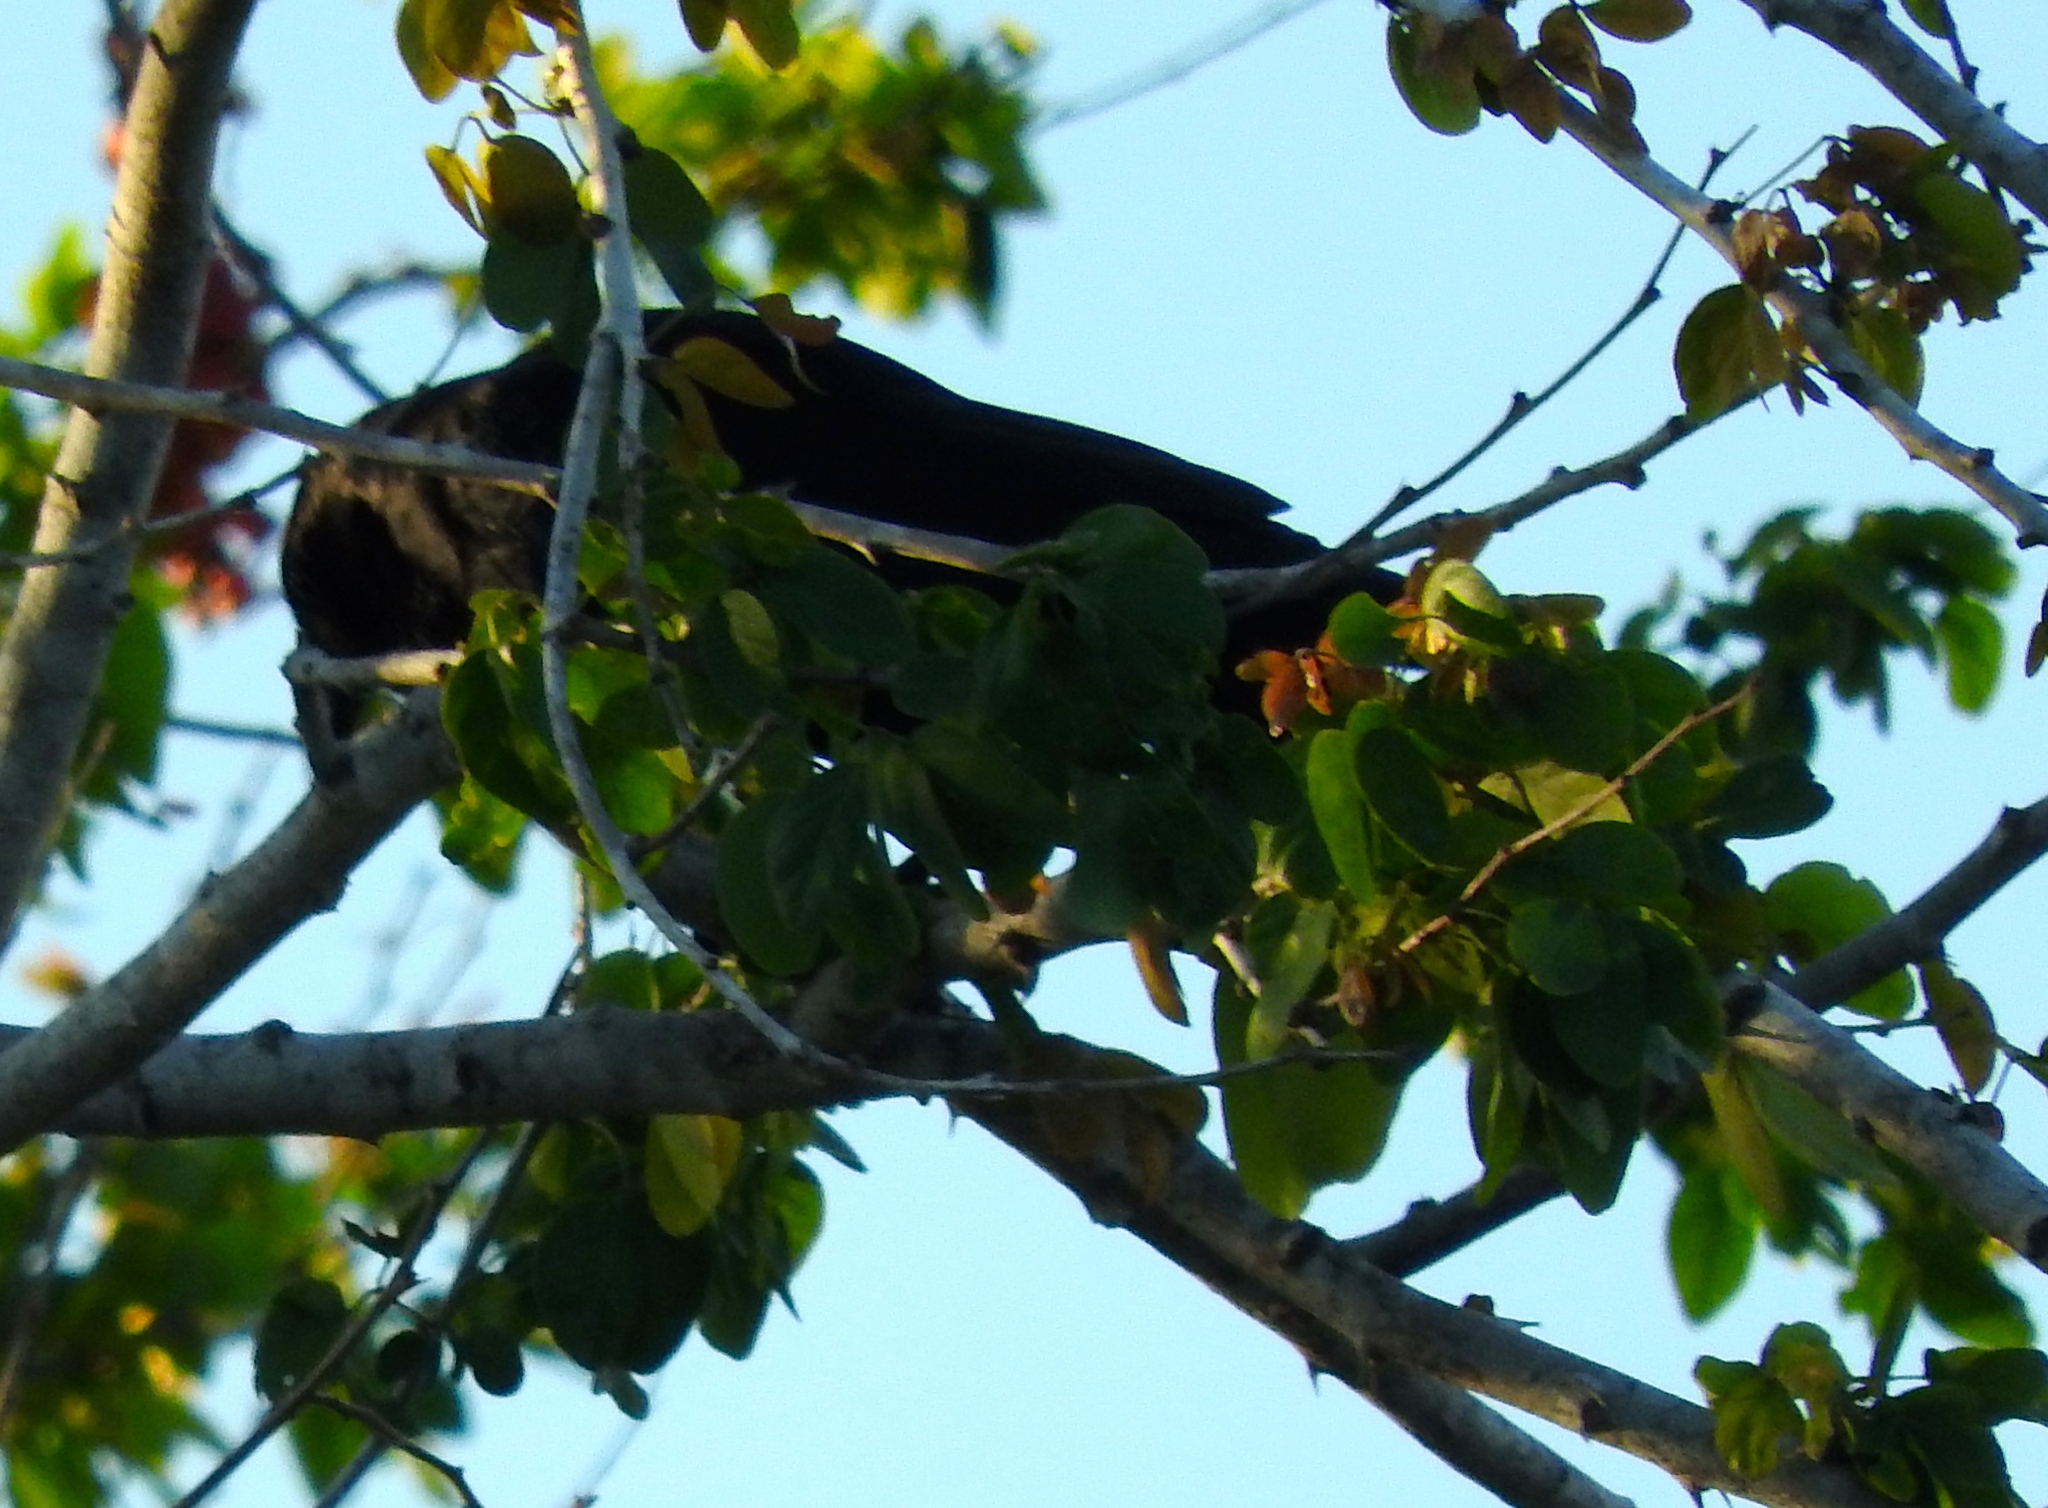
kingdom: Animalia
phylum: Chordata
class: Aves
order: Passeriformes
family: Corvidae
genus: Corvus
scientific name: Corvus sinaloae
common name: Sinaloa crow
